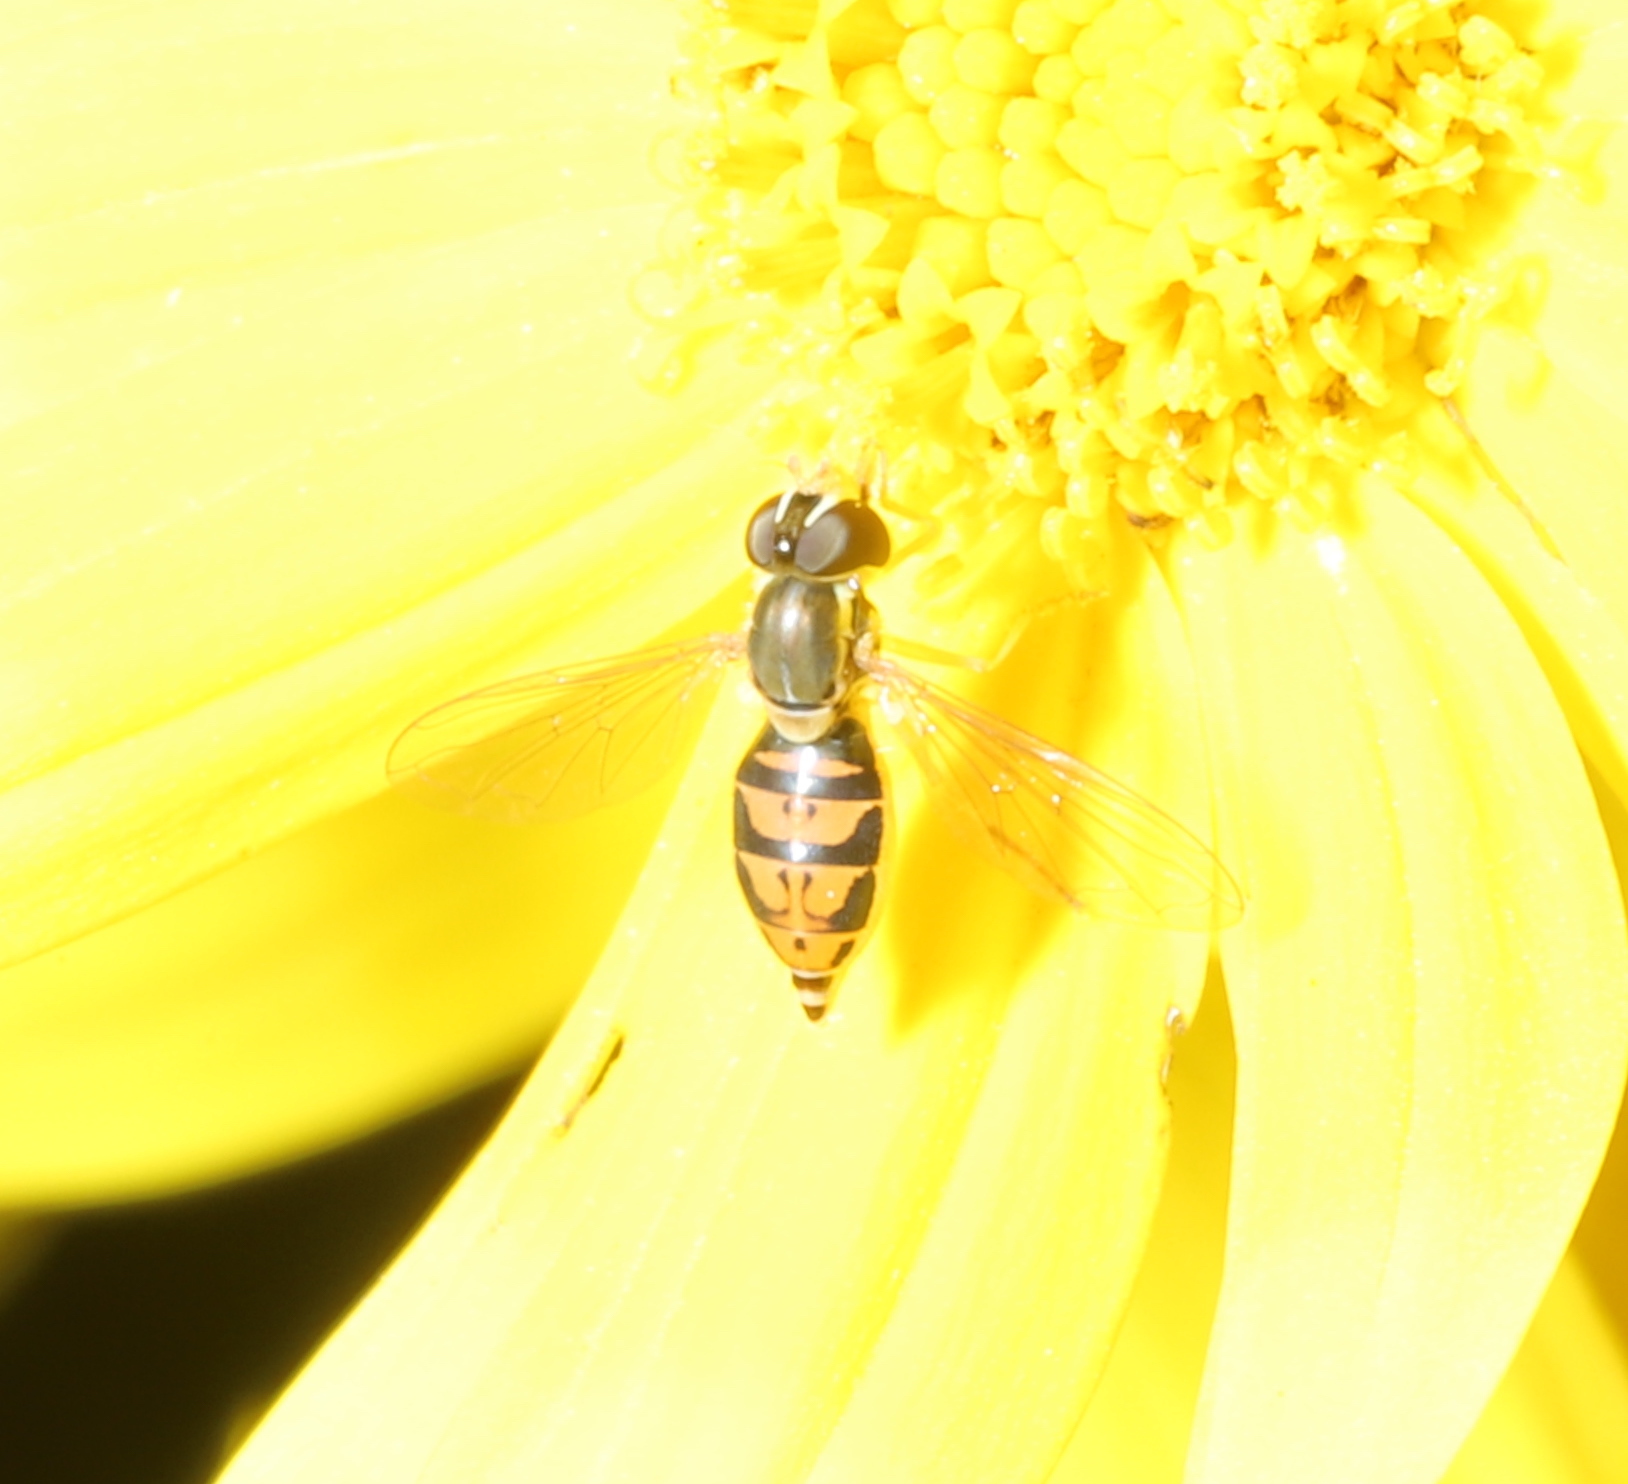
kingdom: Animalia
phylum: Arthropoda
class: Insecta
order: Diptera
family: Syrphidae
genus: Toxomerus
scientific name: Toxomerus marginatus
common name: Syrphid fly
